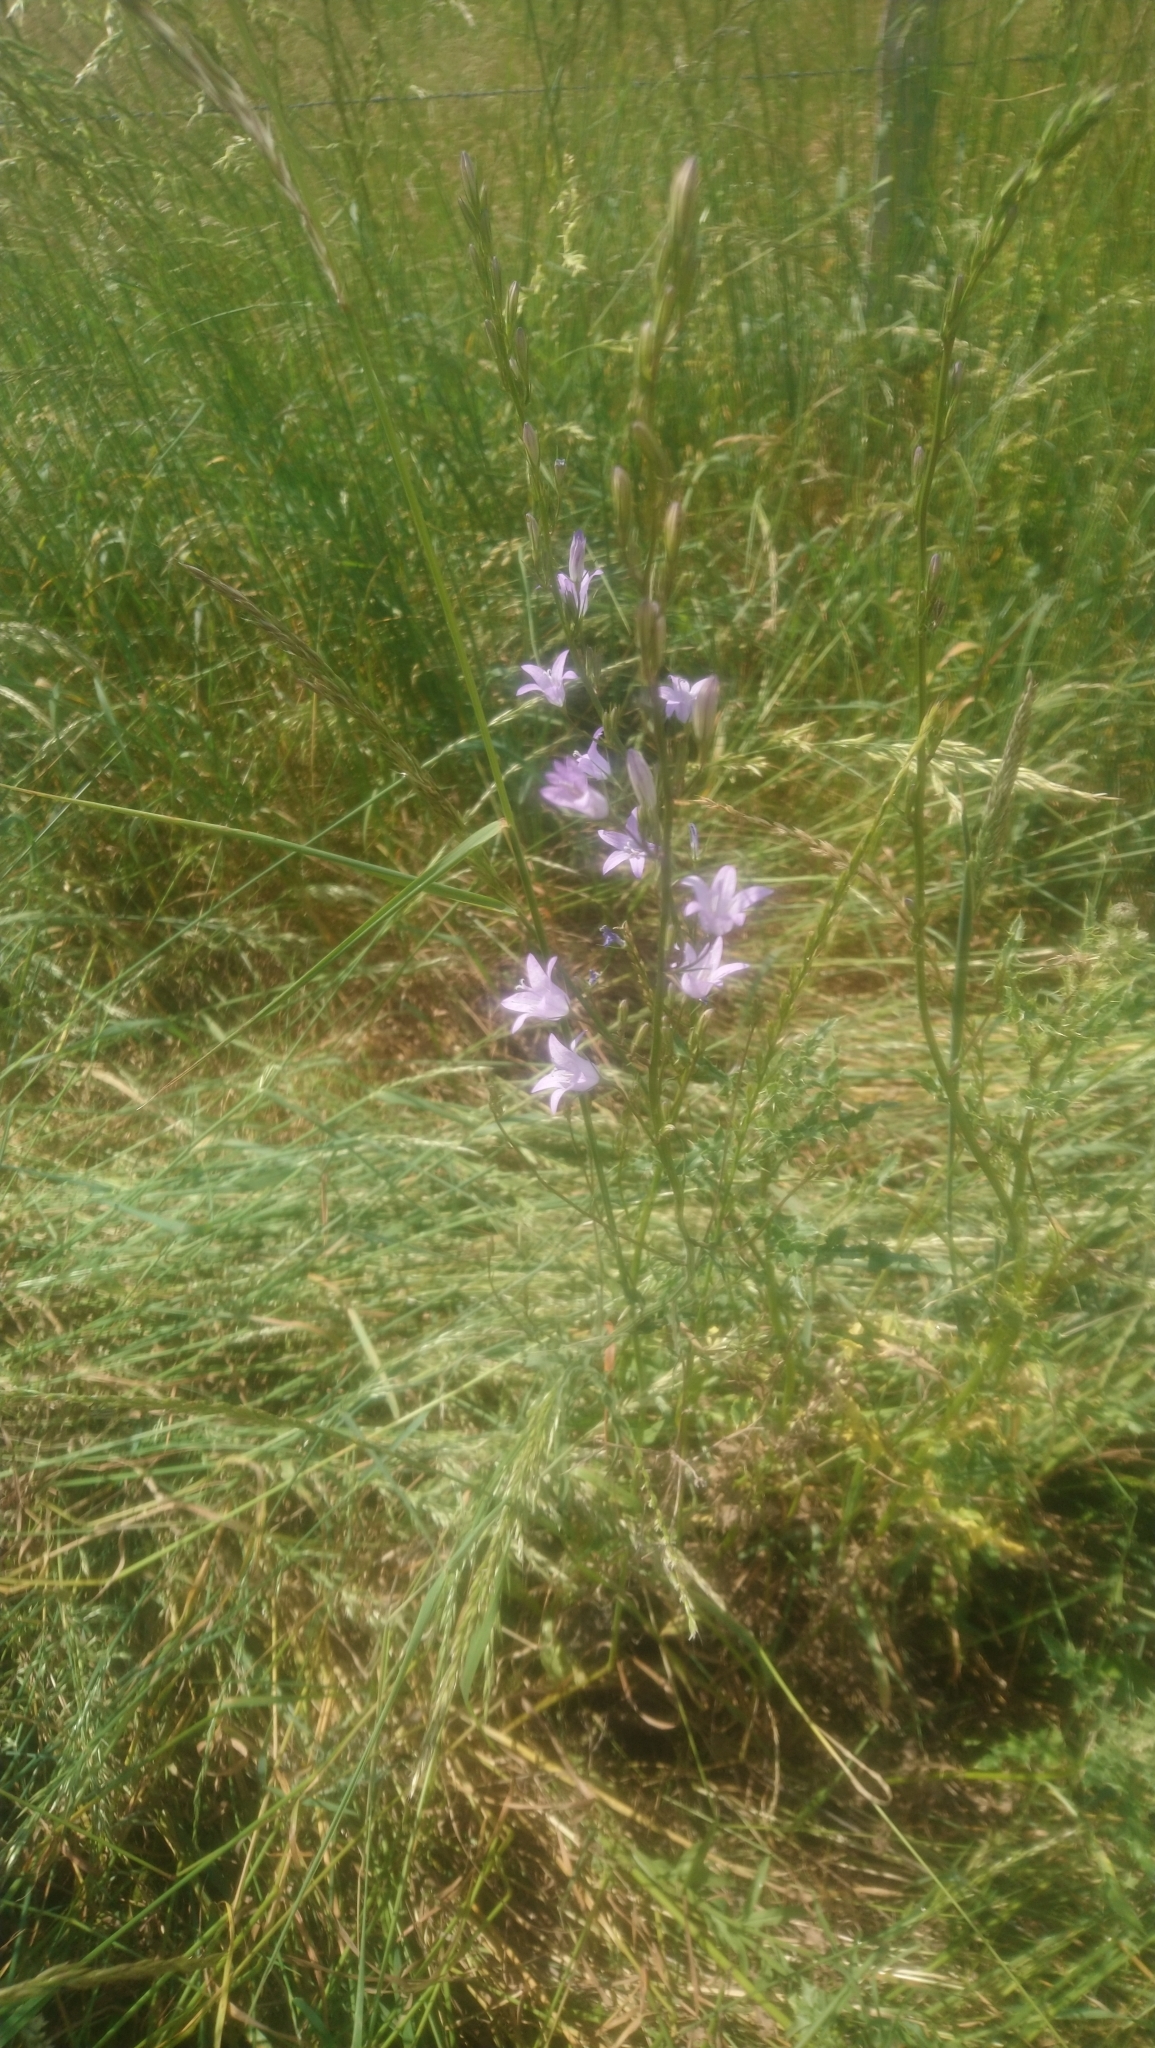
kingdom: Plantae
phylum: Tracheophyta
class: Magnoliopsida
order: Asterales
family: Campanulaceae
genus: Campanula
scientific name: Campanula rapunculus
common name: Rampion bellflower
